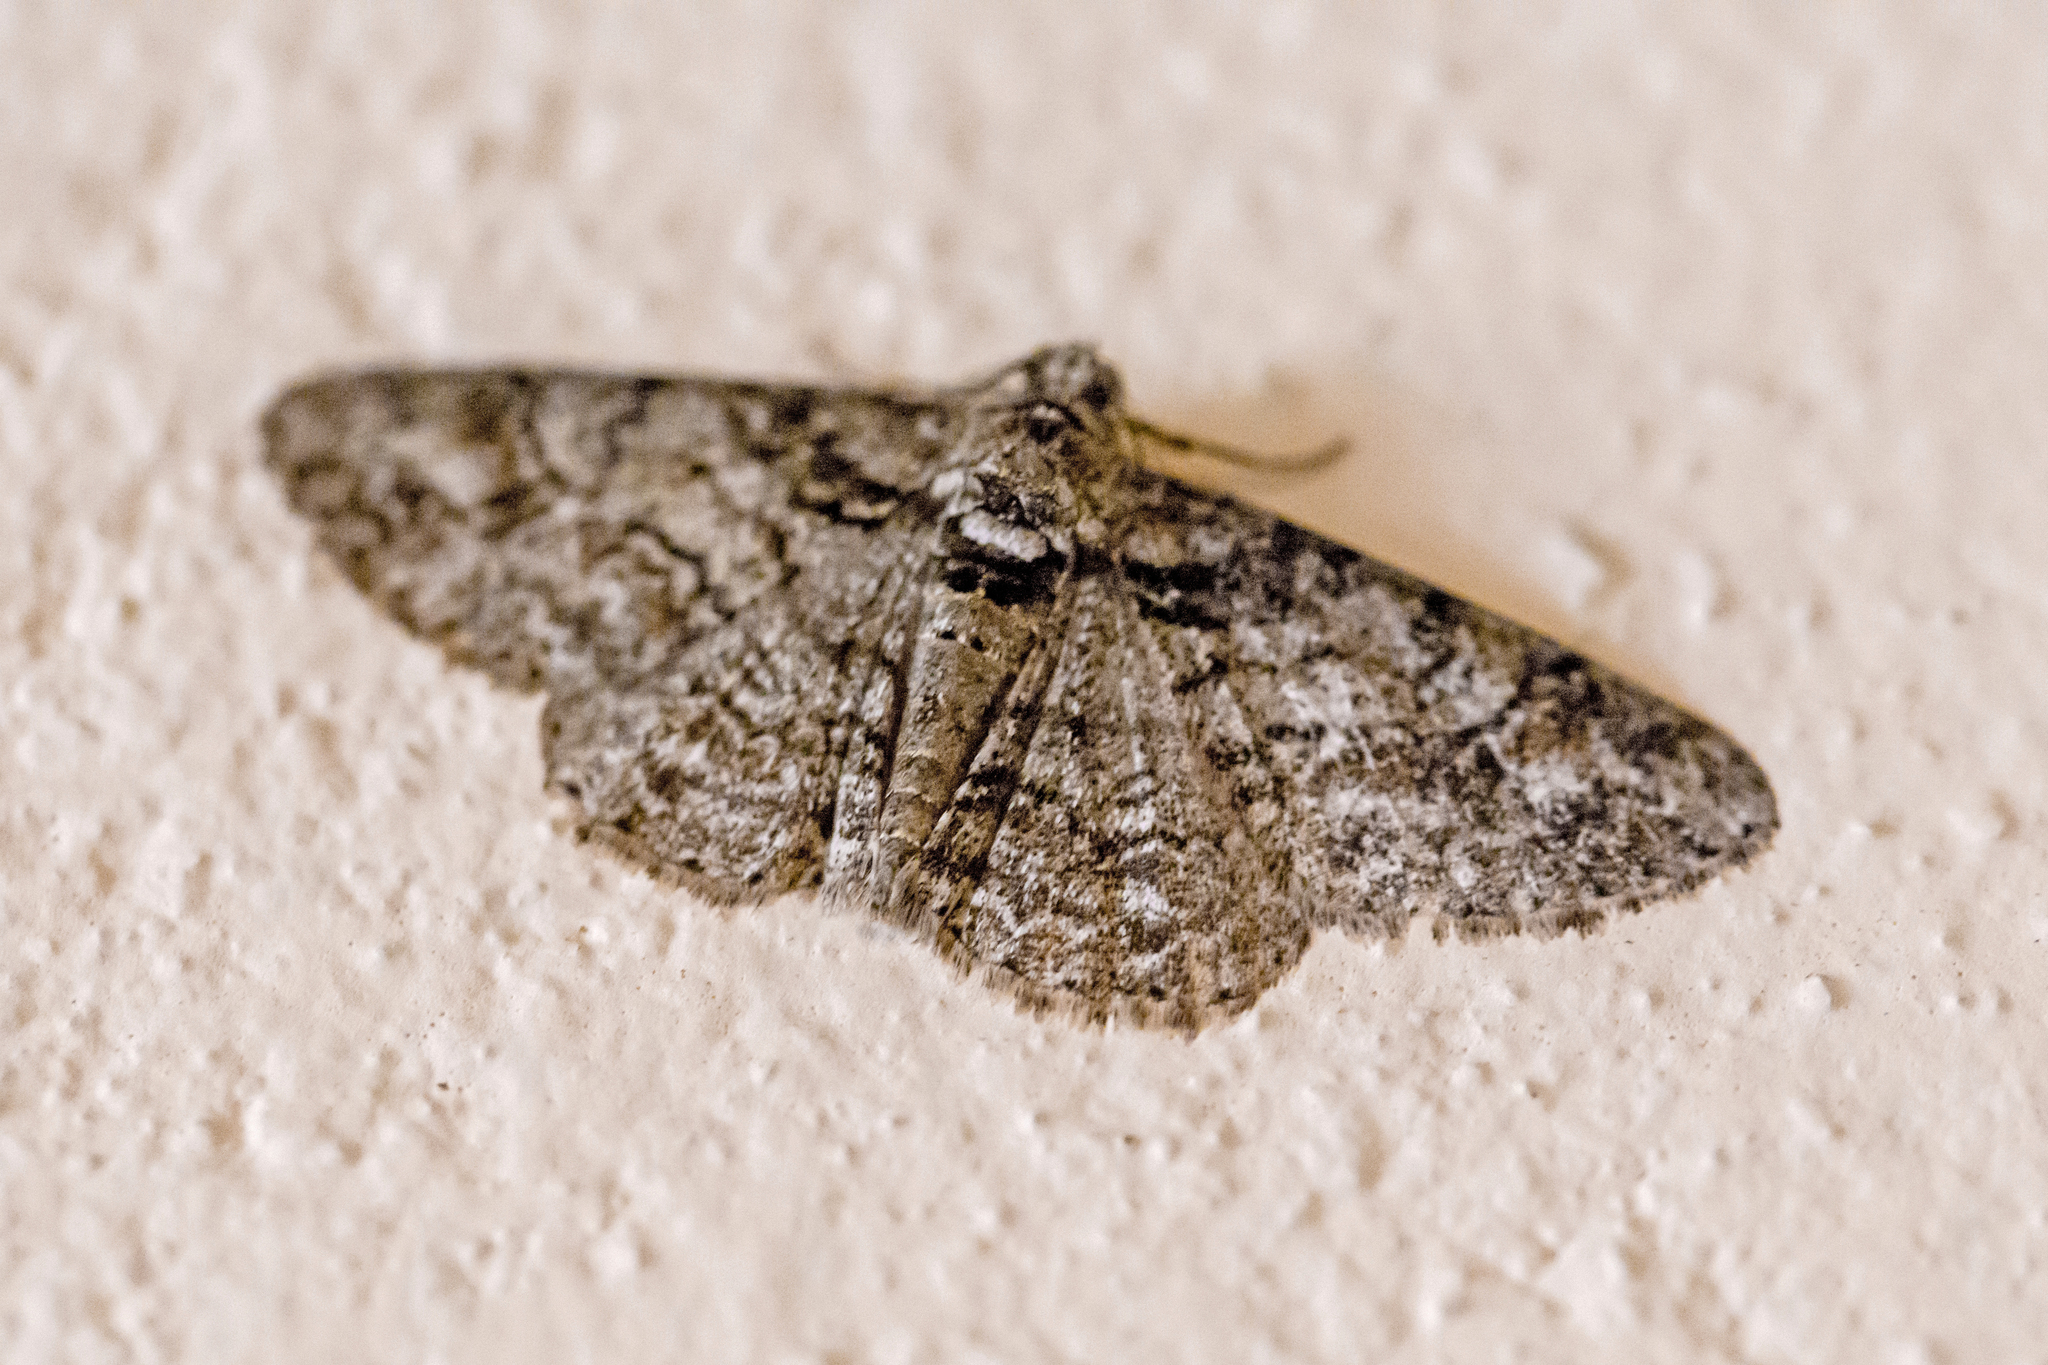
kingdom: Animalia
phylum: Arthropoda
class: Insecta
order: Lepidoptera
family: Geometridae
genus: Cleora
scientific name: Cleora sublunaria
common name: Double-lined gray
